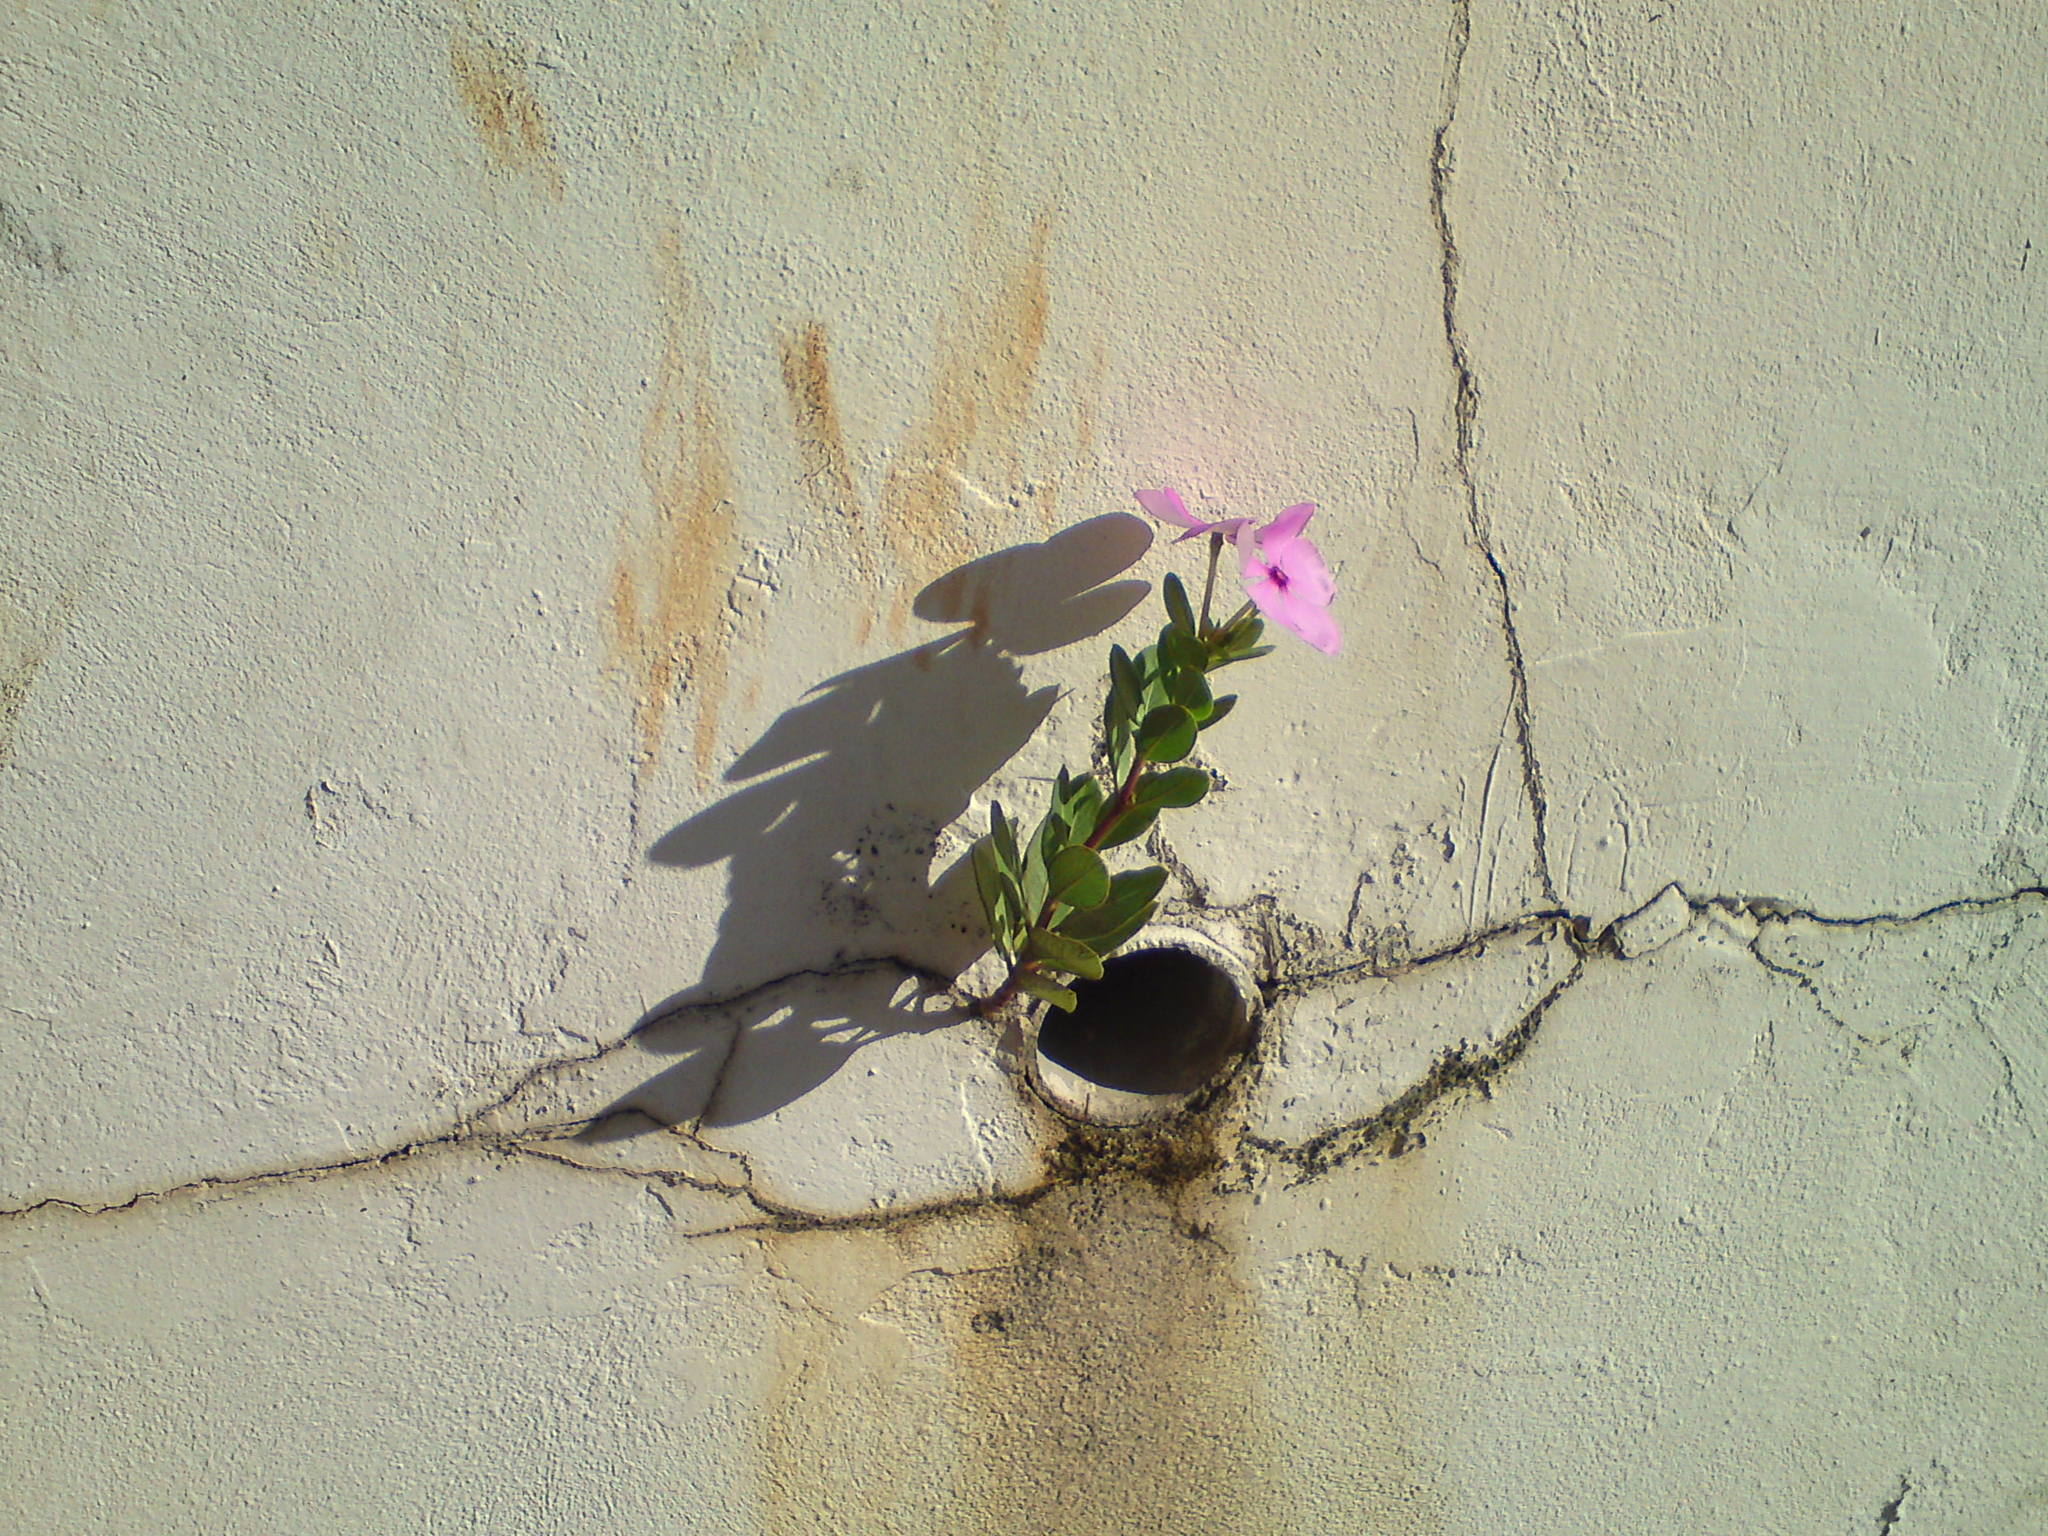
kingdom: Plantae
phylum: Tracheophyta
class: Magnoliopsida
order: Gentianales
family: Apocynaceae
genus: Catharanthus
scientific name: Catharanthus roseus
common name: Madagascar periwinkle
